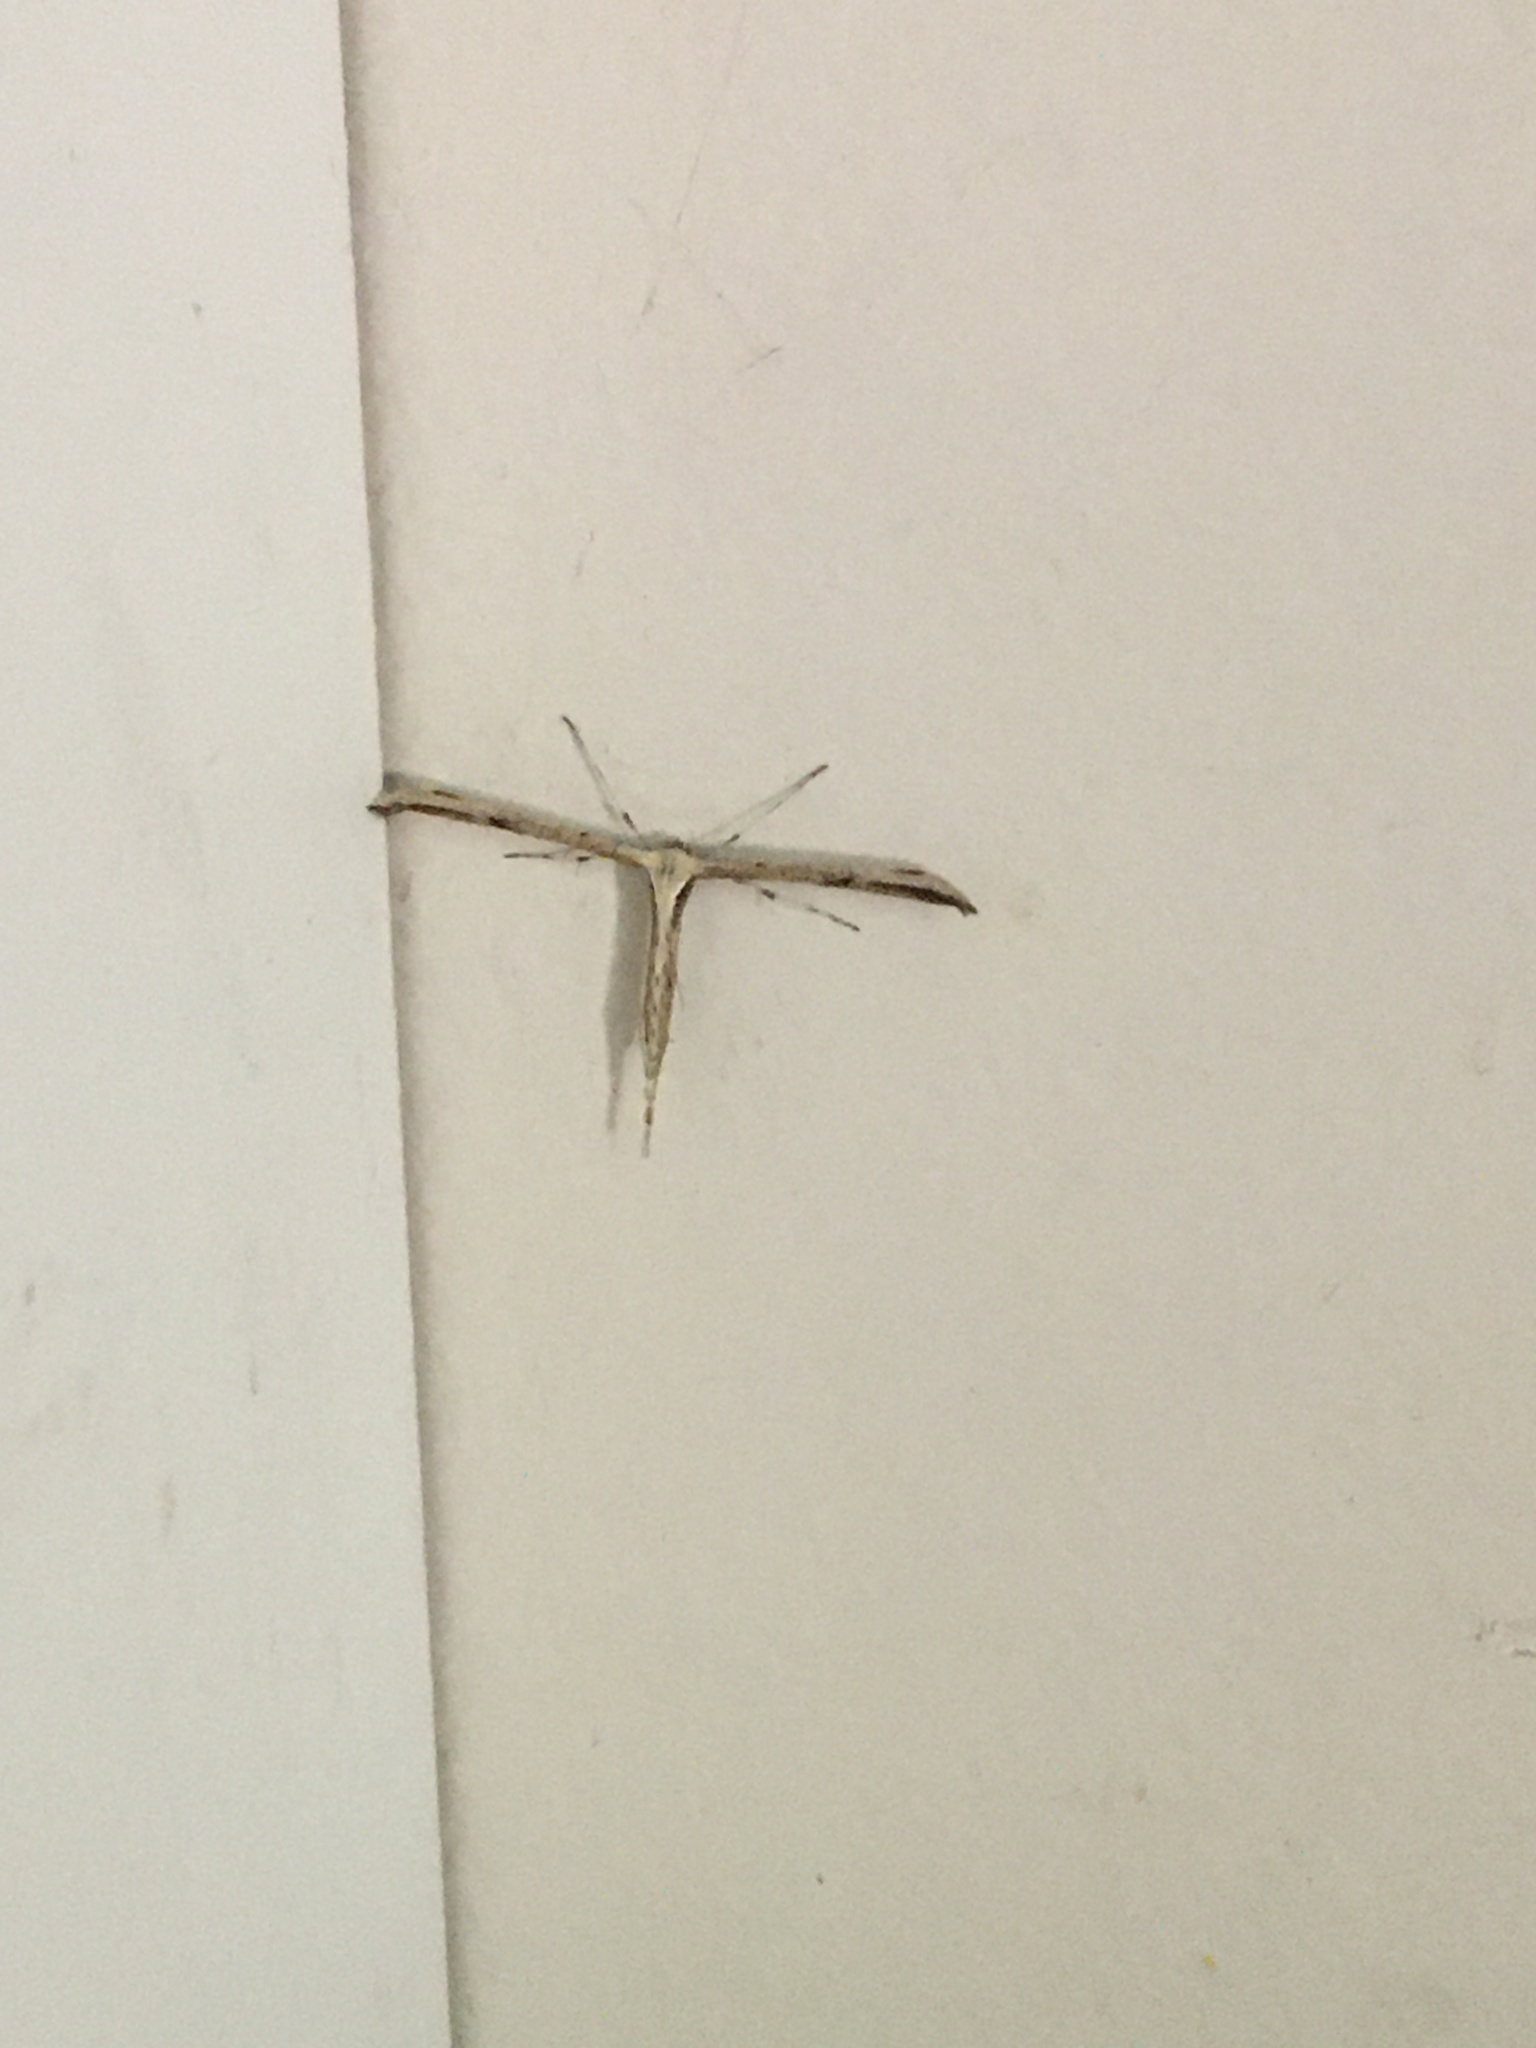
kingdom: Animalia
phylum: Arthropoda
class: Insecta
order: Lepidoptera
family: Pterophoridae
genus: Emmelina
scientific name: Emmelina monodactyla
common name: Common plume
